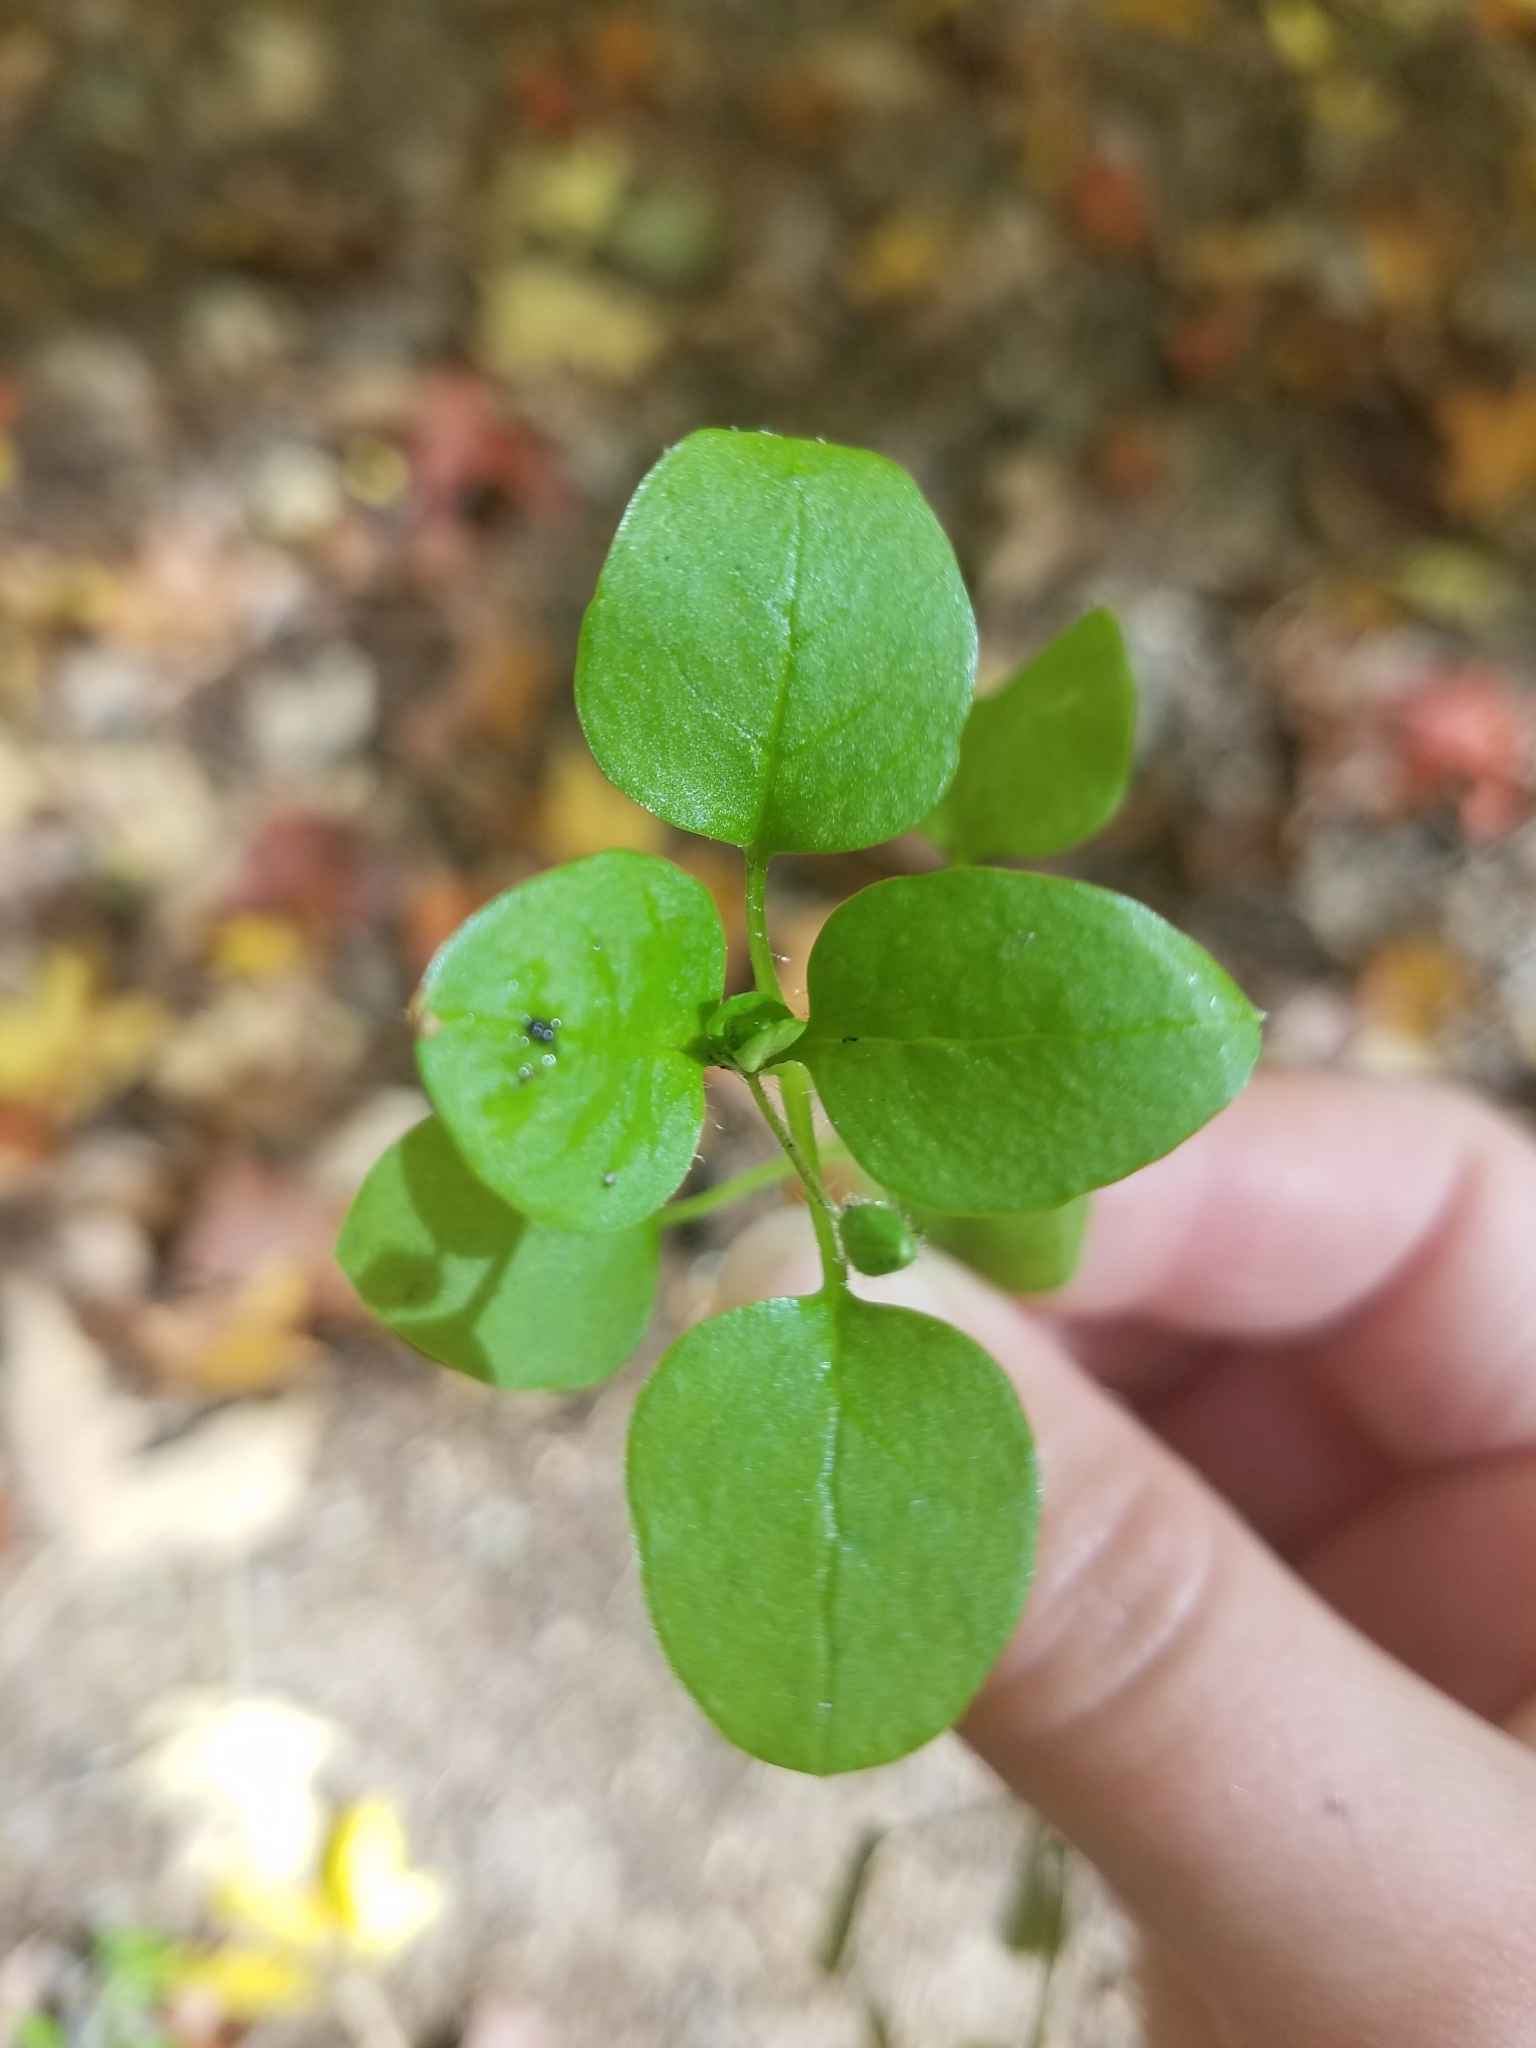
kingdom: Plantae
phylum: Tracheophyta
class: Magnoliopsida
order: Caryophyllales
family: Caryophyllaceae
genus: Stellaria
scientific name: Stellaria media
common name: Common chickweed
